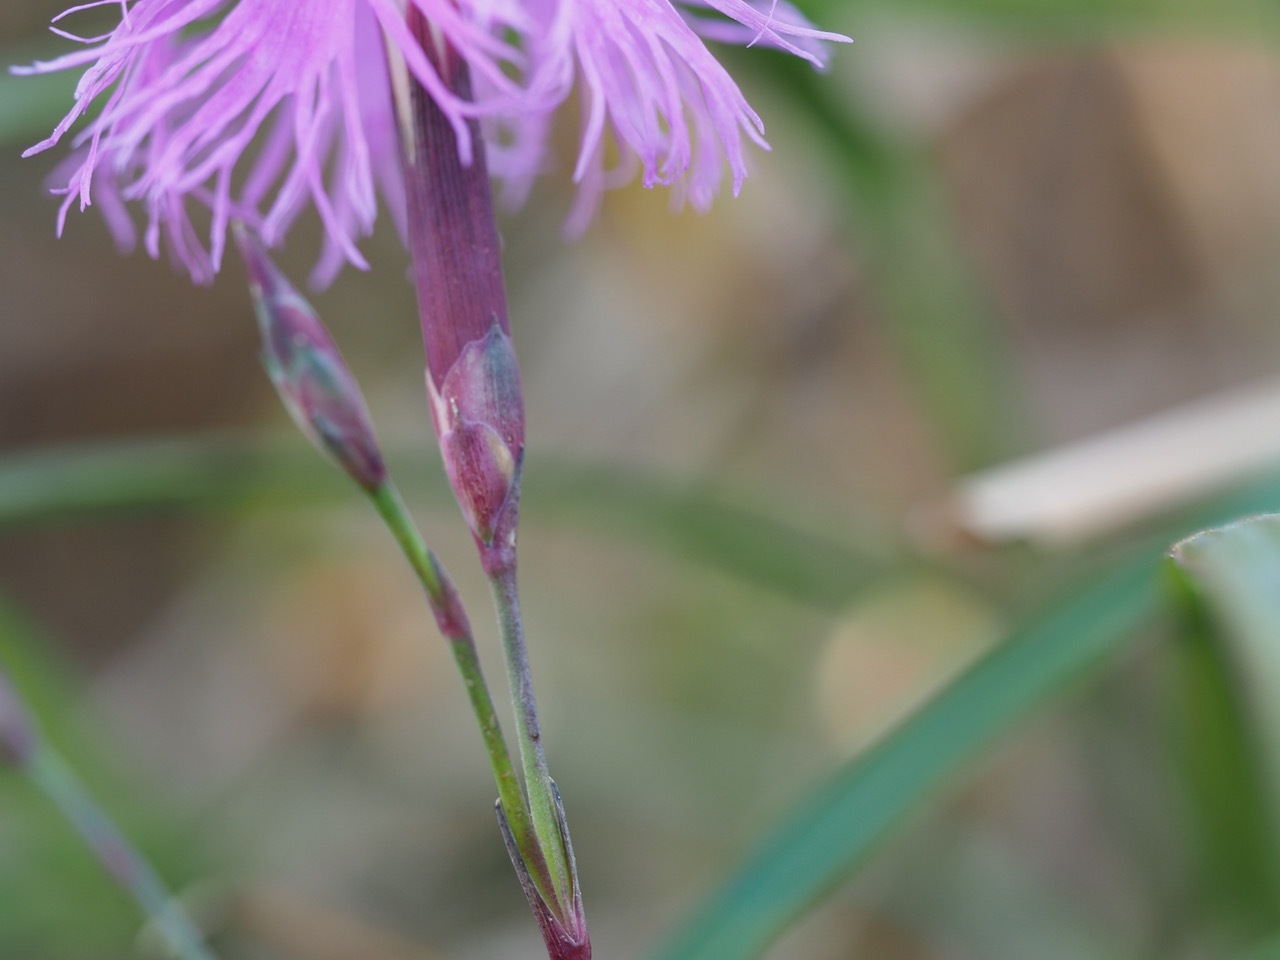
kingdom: Plantae
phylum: Tracheophyta
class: Magnoliopsida
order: Caryophyllales
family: Caryophyllaceae
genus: Dianthus
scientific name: Dianthus longicalyx
